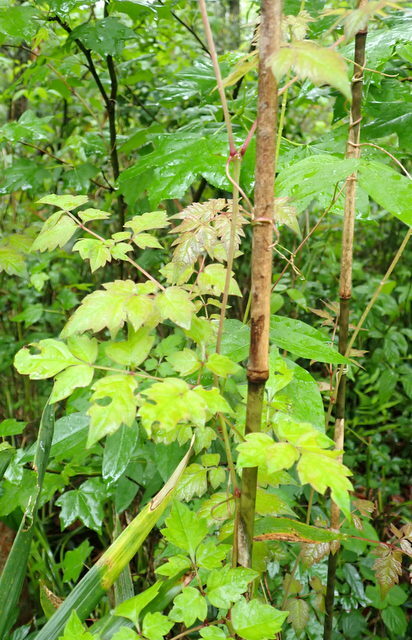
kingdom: Plantae
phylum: Tracheophyta
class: Magnoliopsida
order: Vitales
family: Vitaceae
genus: Nekemias
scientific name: Nekemias arborea
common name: Peppervine
